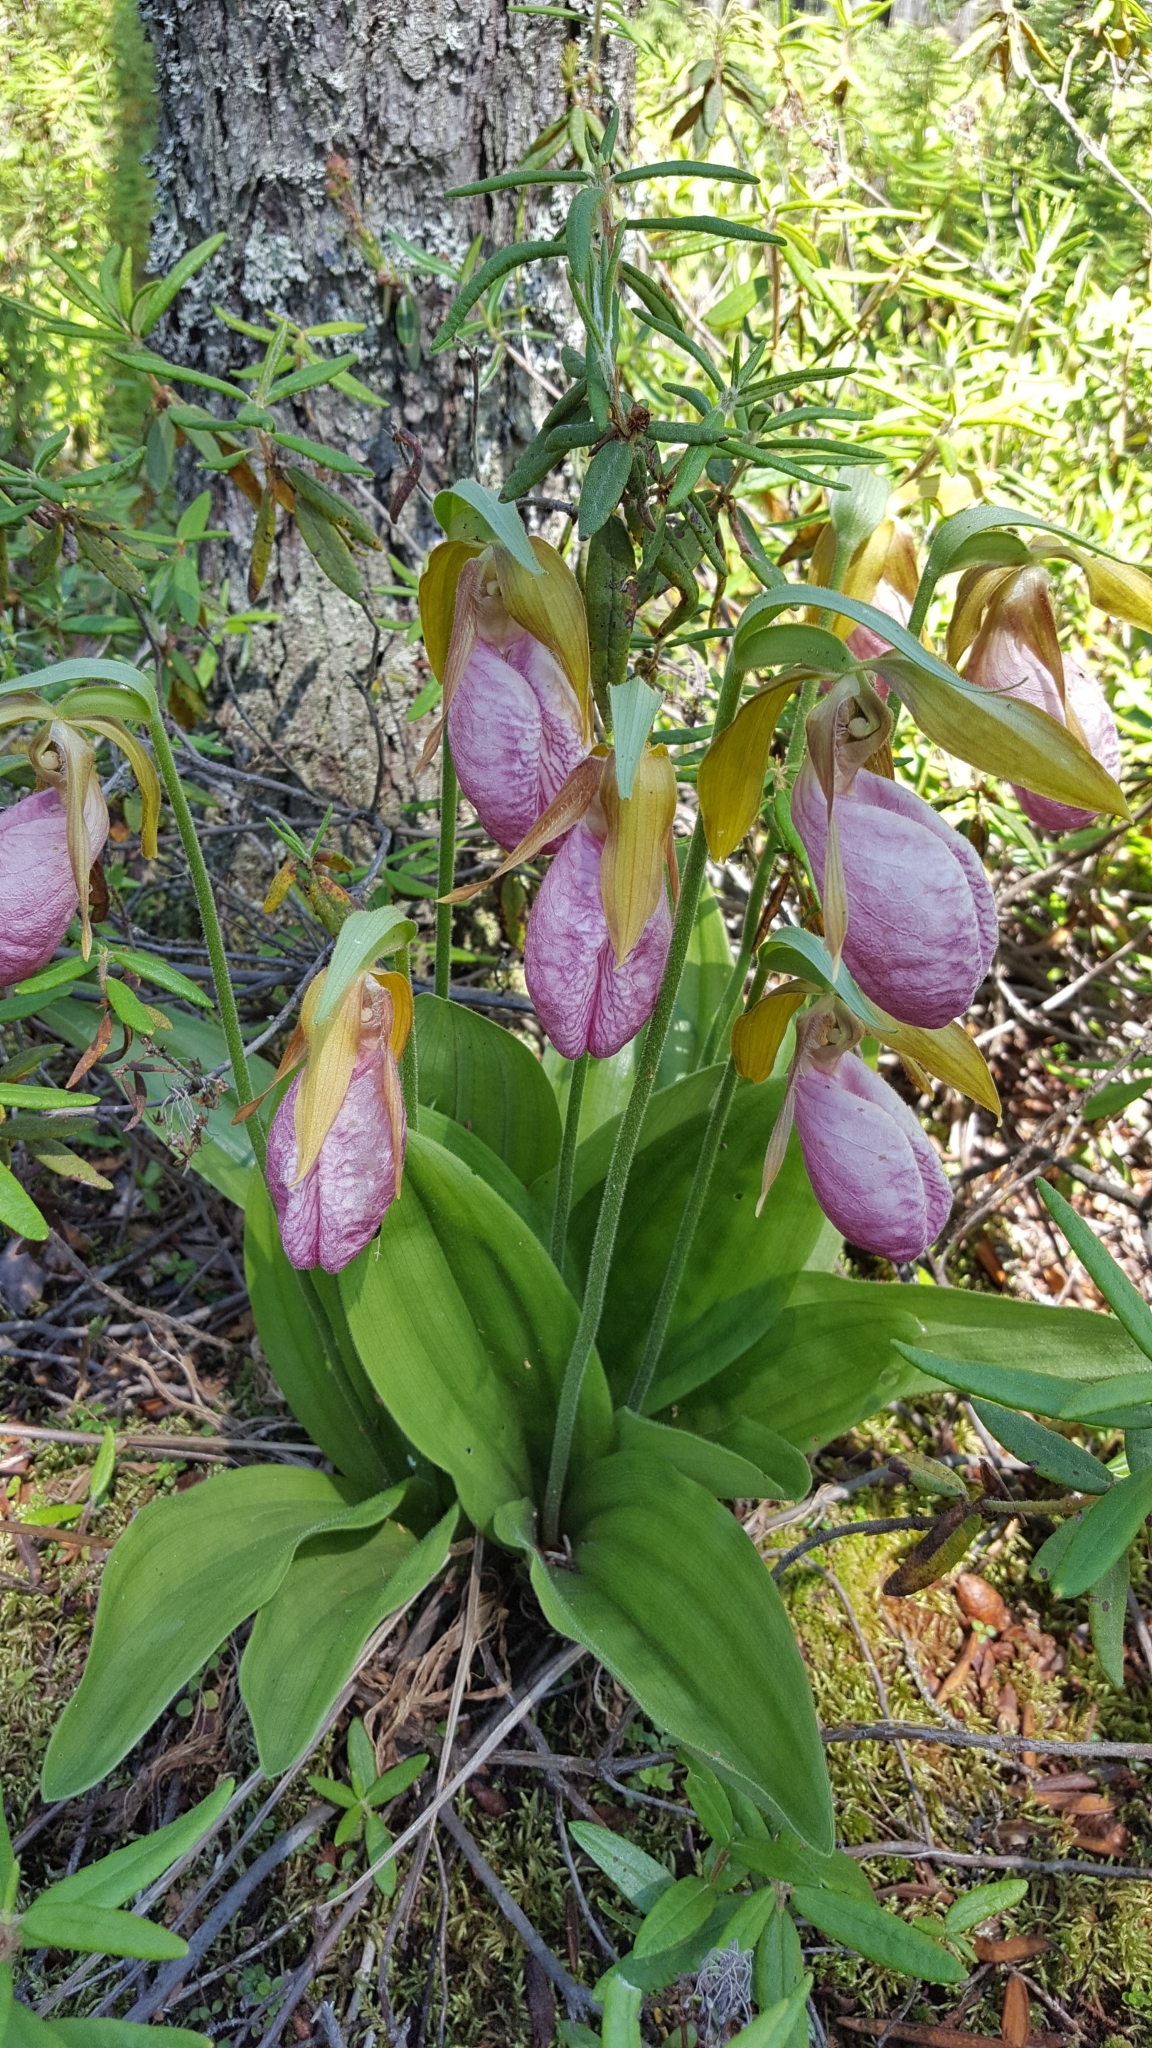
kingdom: Plantae
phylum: Tracheophyta
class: Liliopsida
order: Asparagales
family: Orchidaceae
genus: Cypripedium
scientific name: Cypripedium acaule
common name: Pink lady's-slipper
